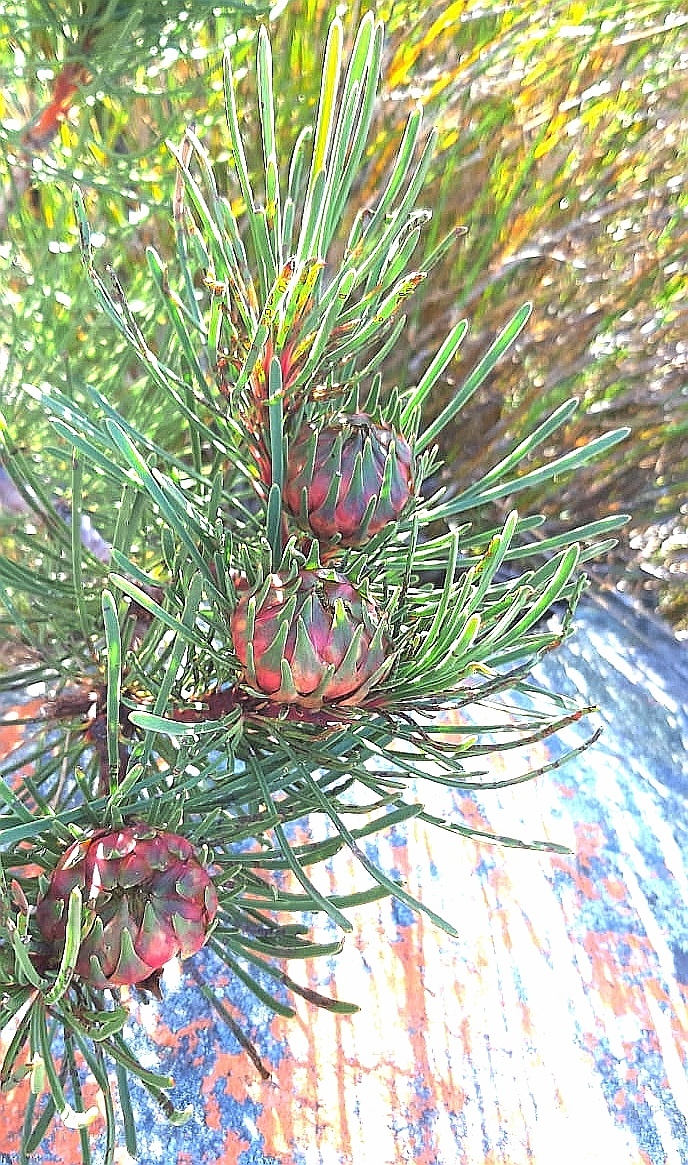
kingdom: Plantae
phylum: Tracheophyta
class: Magnoliopsida
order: Proteales
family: Proteaceae
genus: Aulax
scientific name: Aulax cancellata
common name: Channel-leaf featherbush
